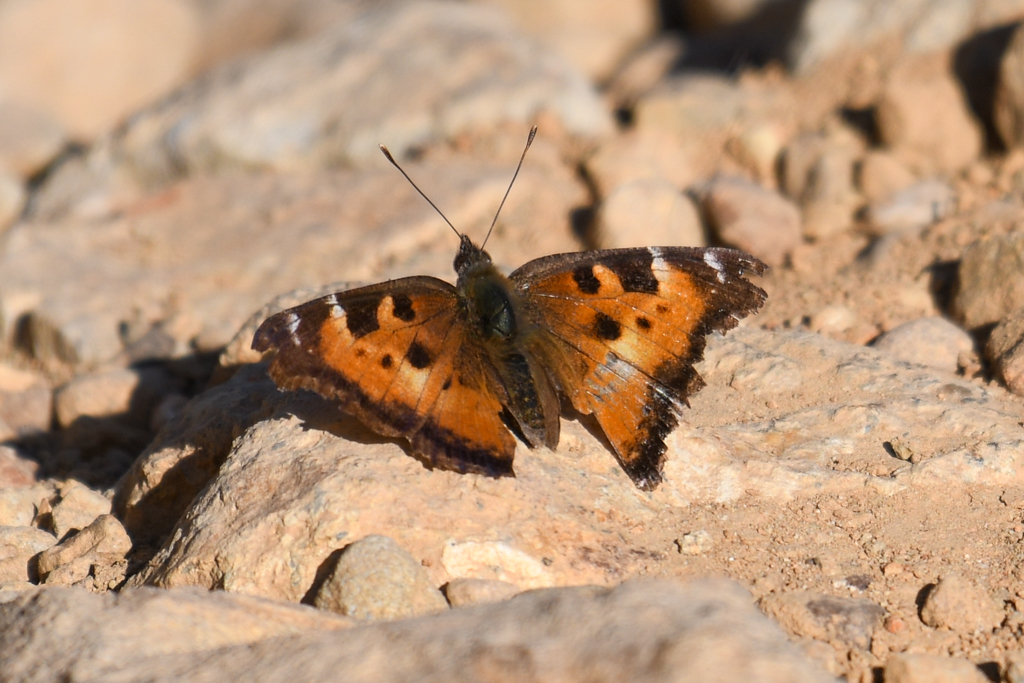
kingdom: Animalia
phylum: Arthropoda
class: Insecta
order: Lepidoptera
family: Nymphalidae
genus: Nymphalis
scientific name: Nymphalis californica
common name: California tortoiseshell
